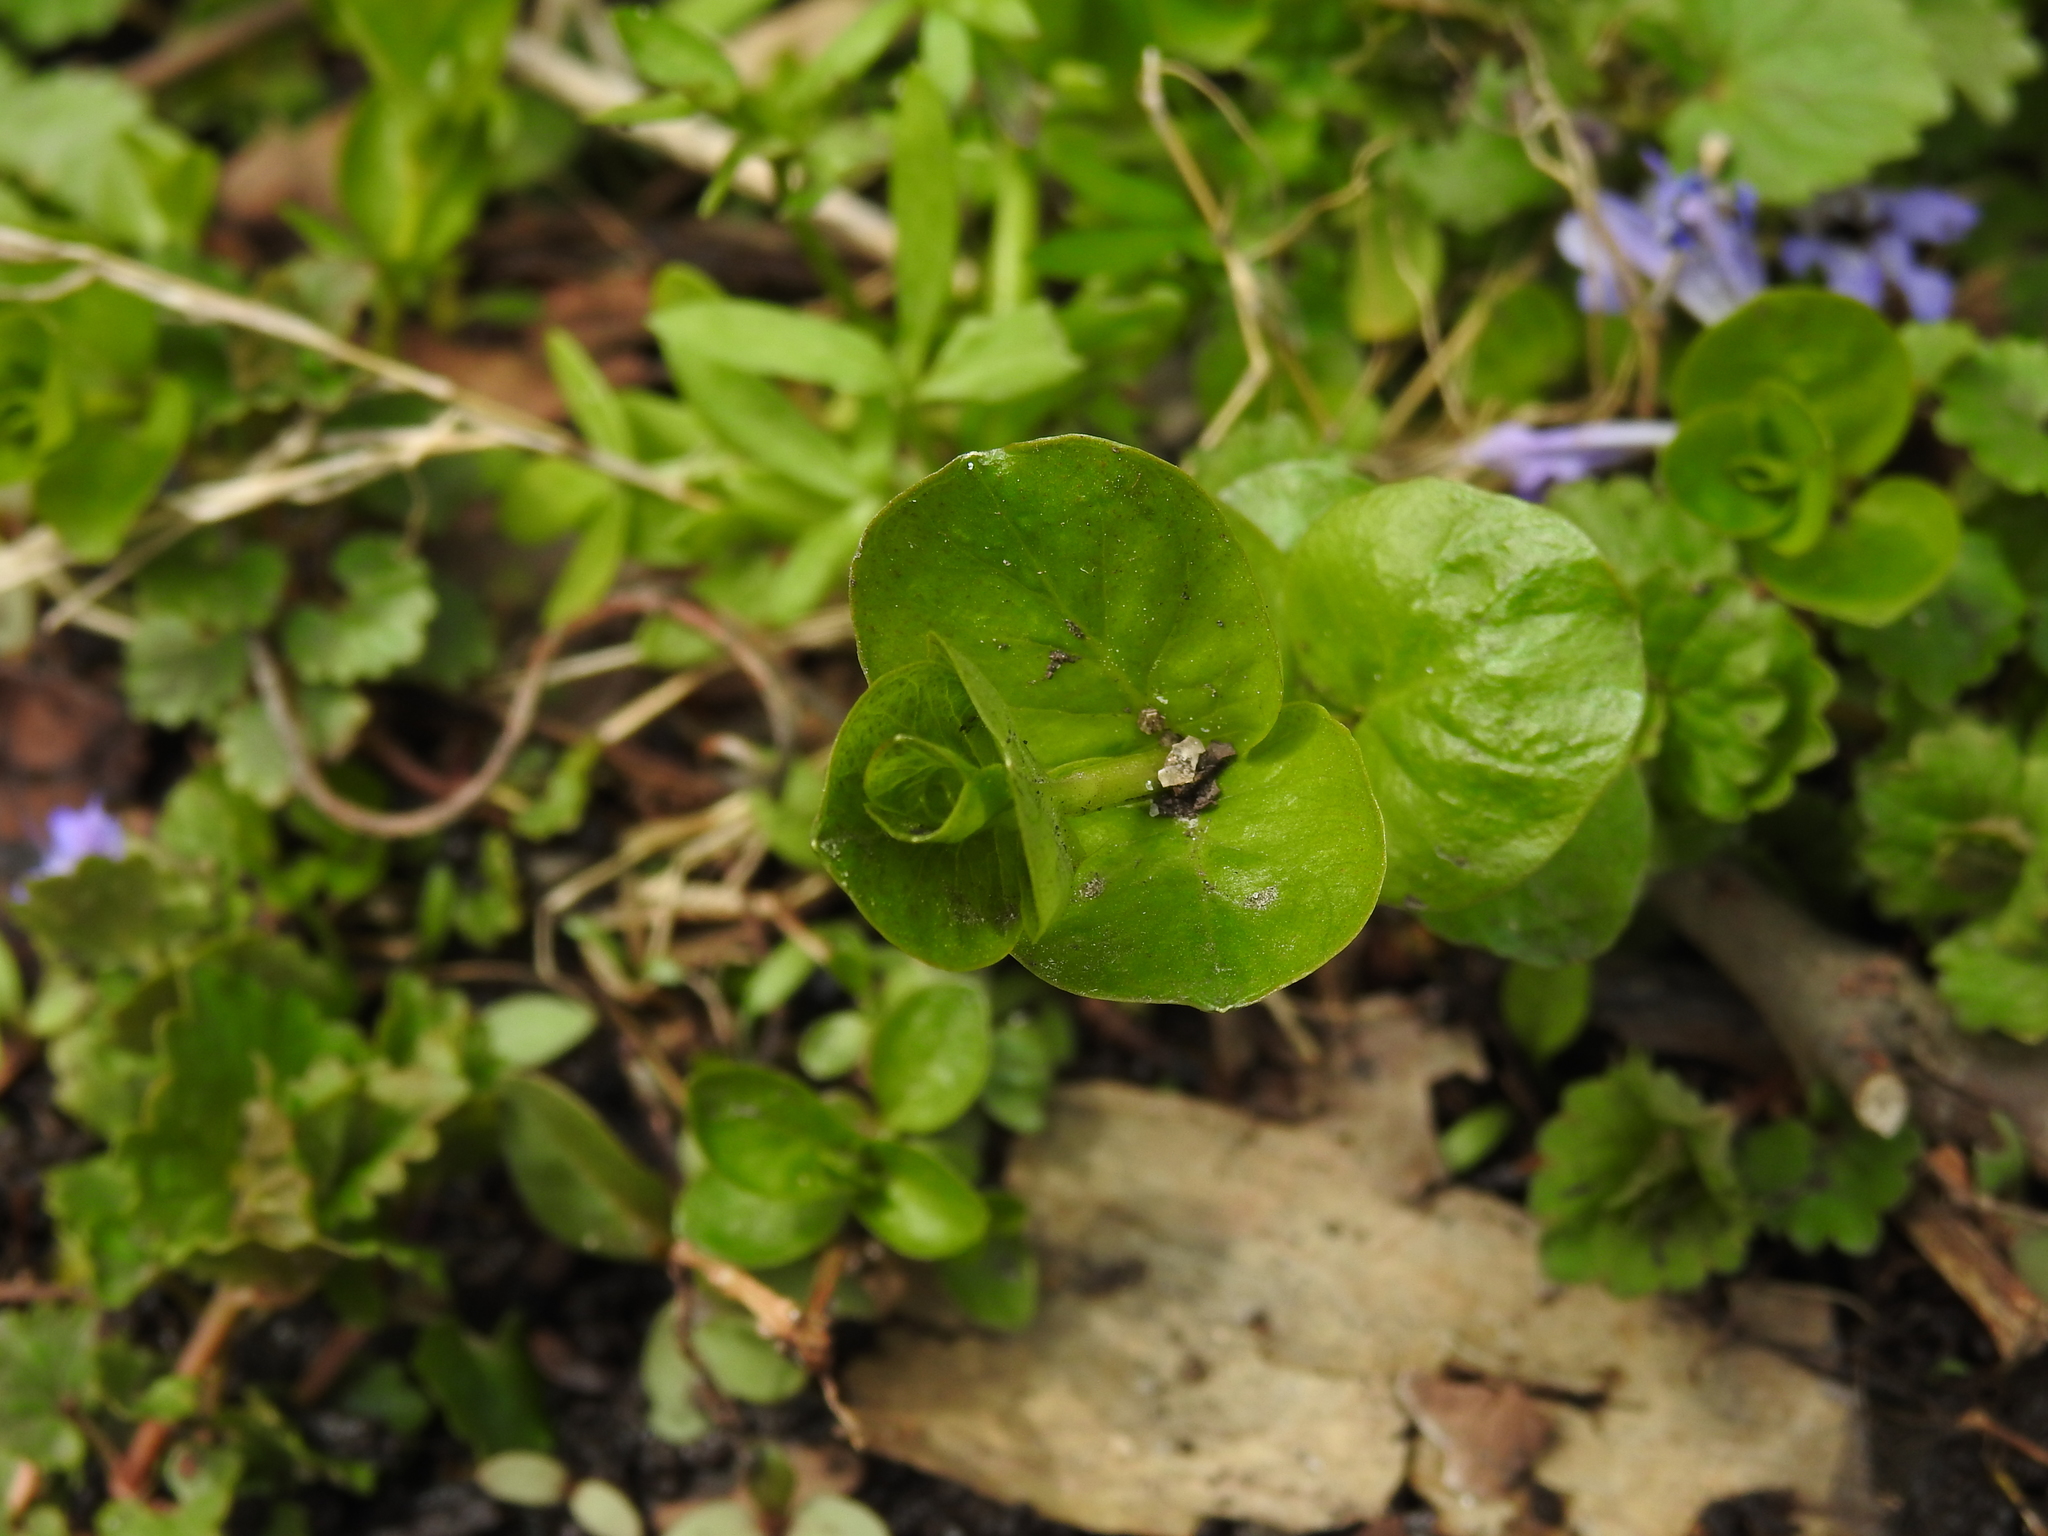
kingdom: Plantae
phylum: Tracheophyta
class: Magnoliopsida
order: Ericales
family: Primulaceae
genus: Lysimachia
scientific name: Lysimachia nummularia
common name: Moneywort
